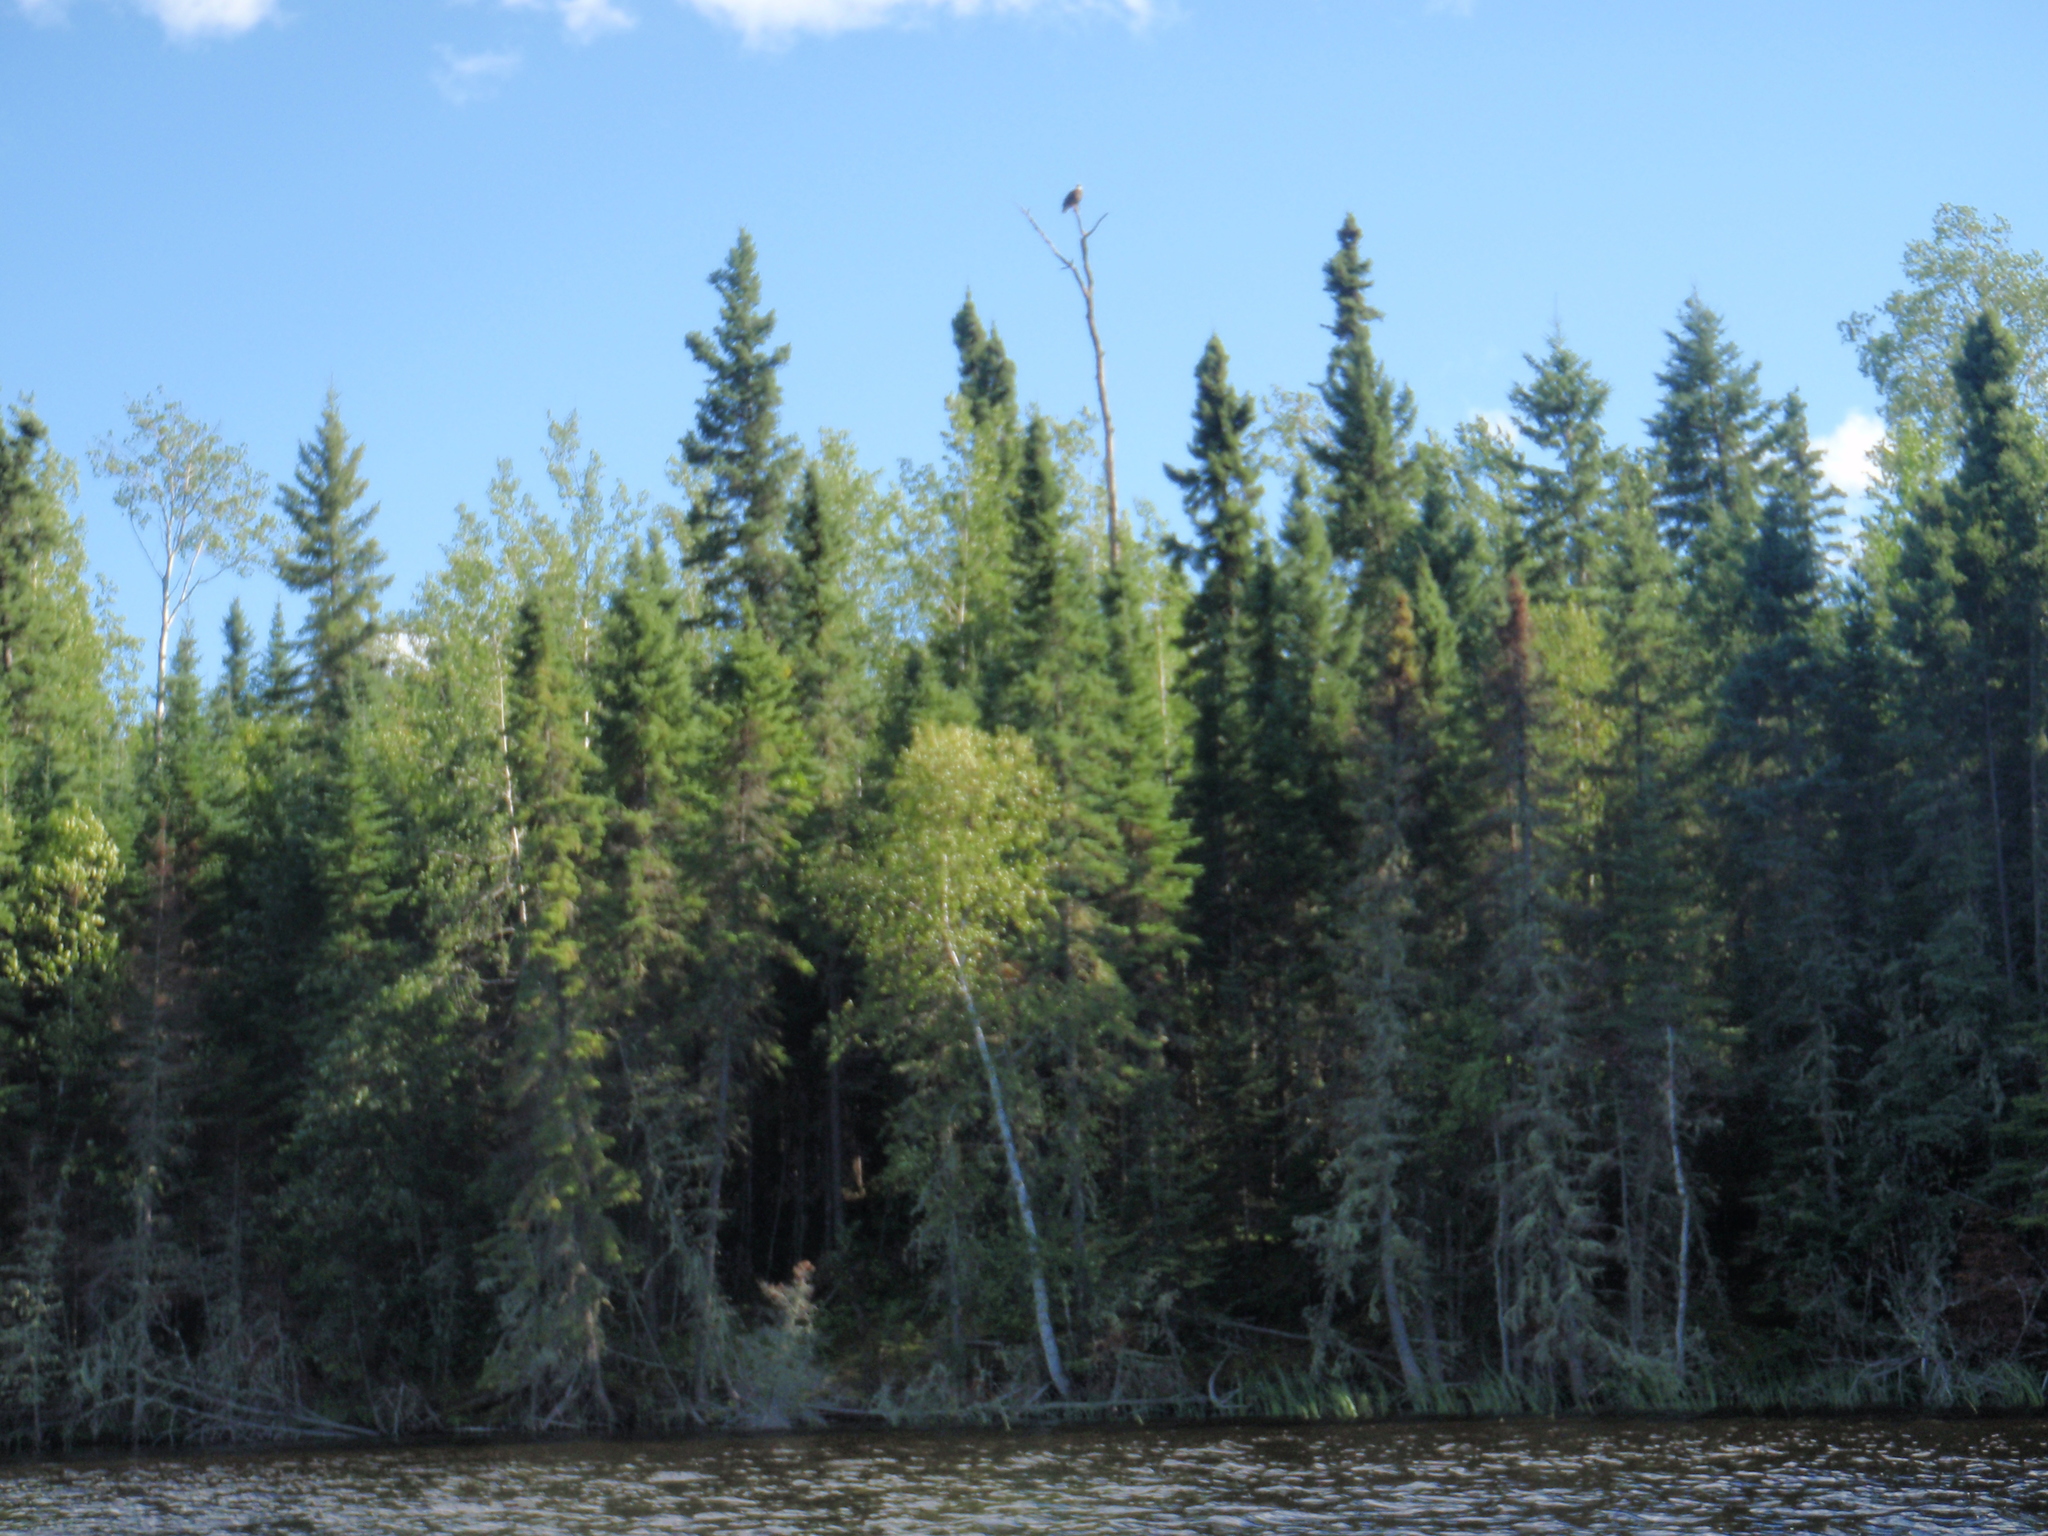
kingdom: Animalia
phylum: Chordata
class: Aves
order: Accipitriformes
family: Accipitridae
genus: Haliaeetus
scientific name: Haliaeetus leucocephalus
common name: Bald eagle
